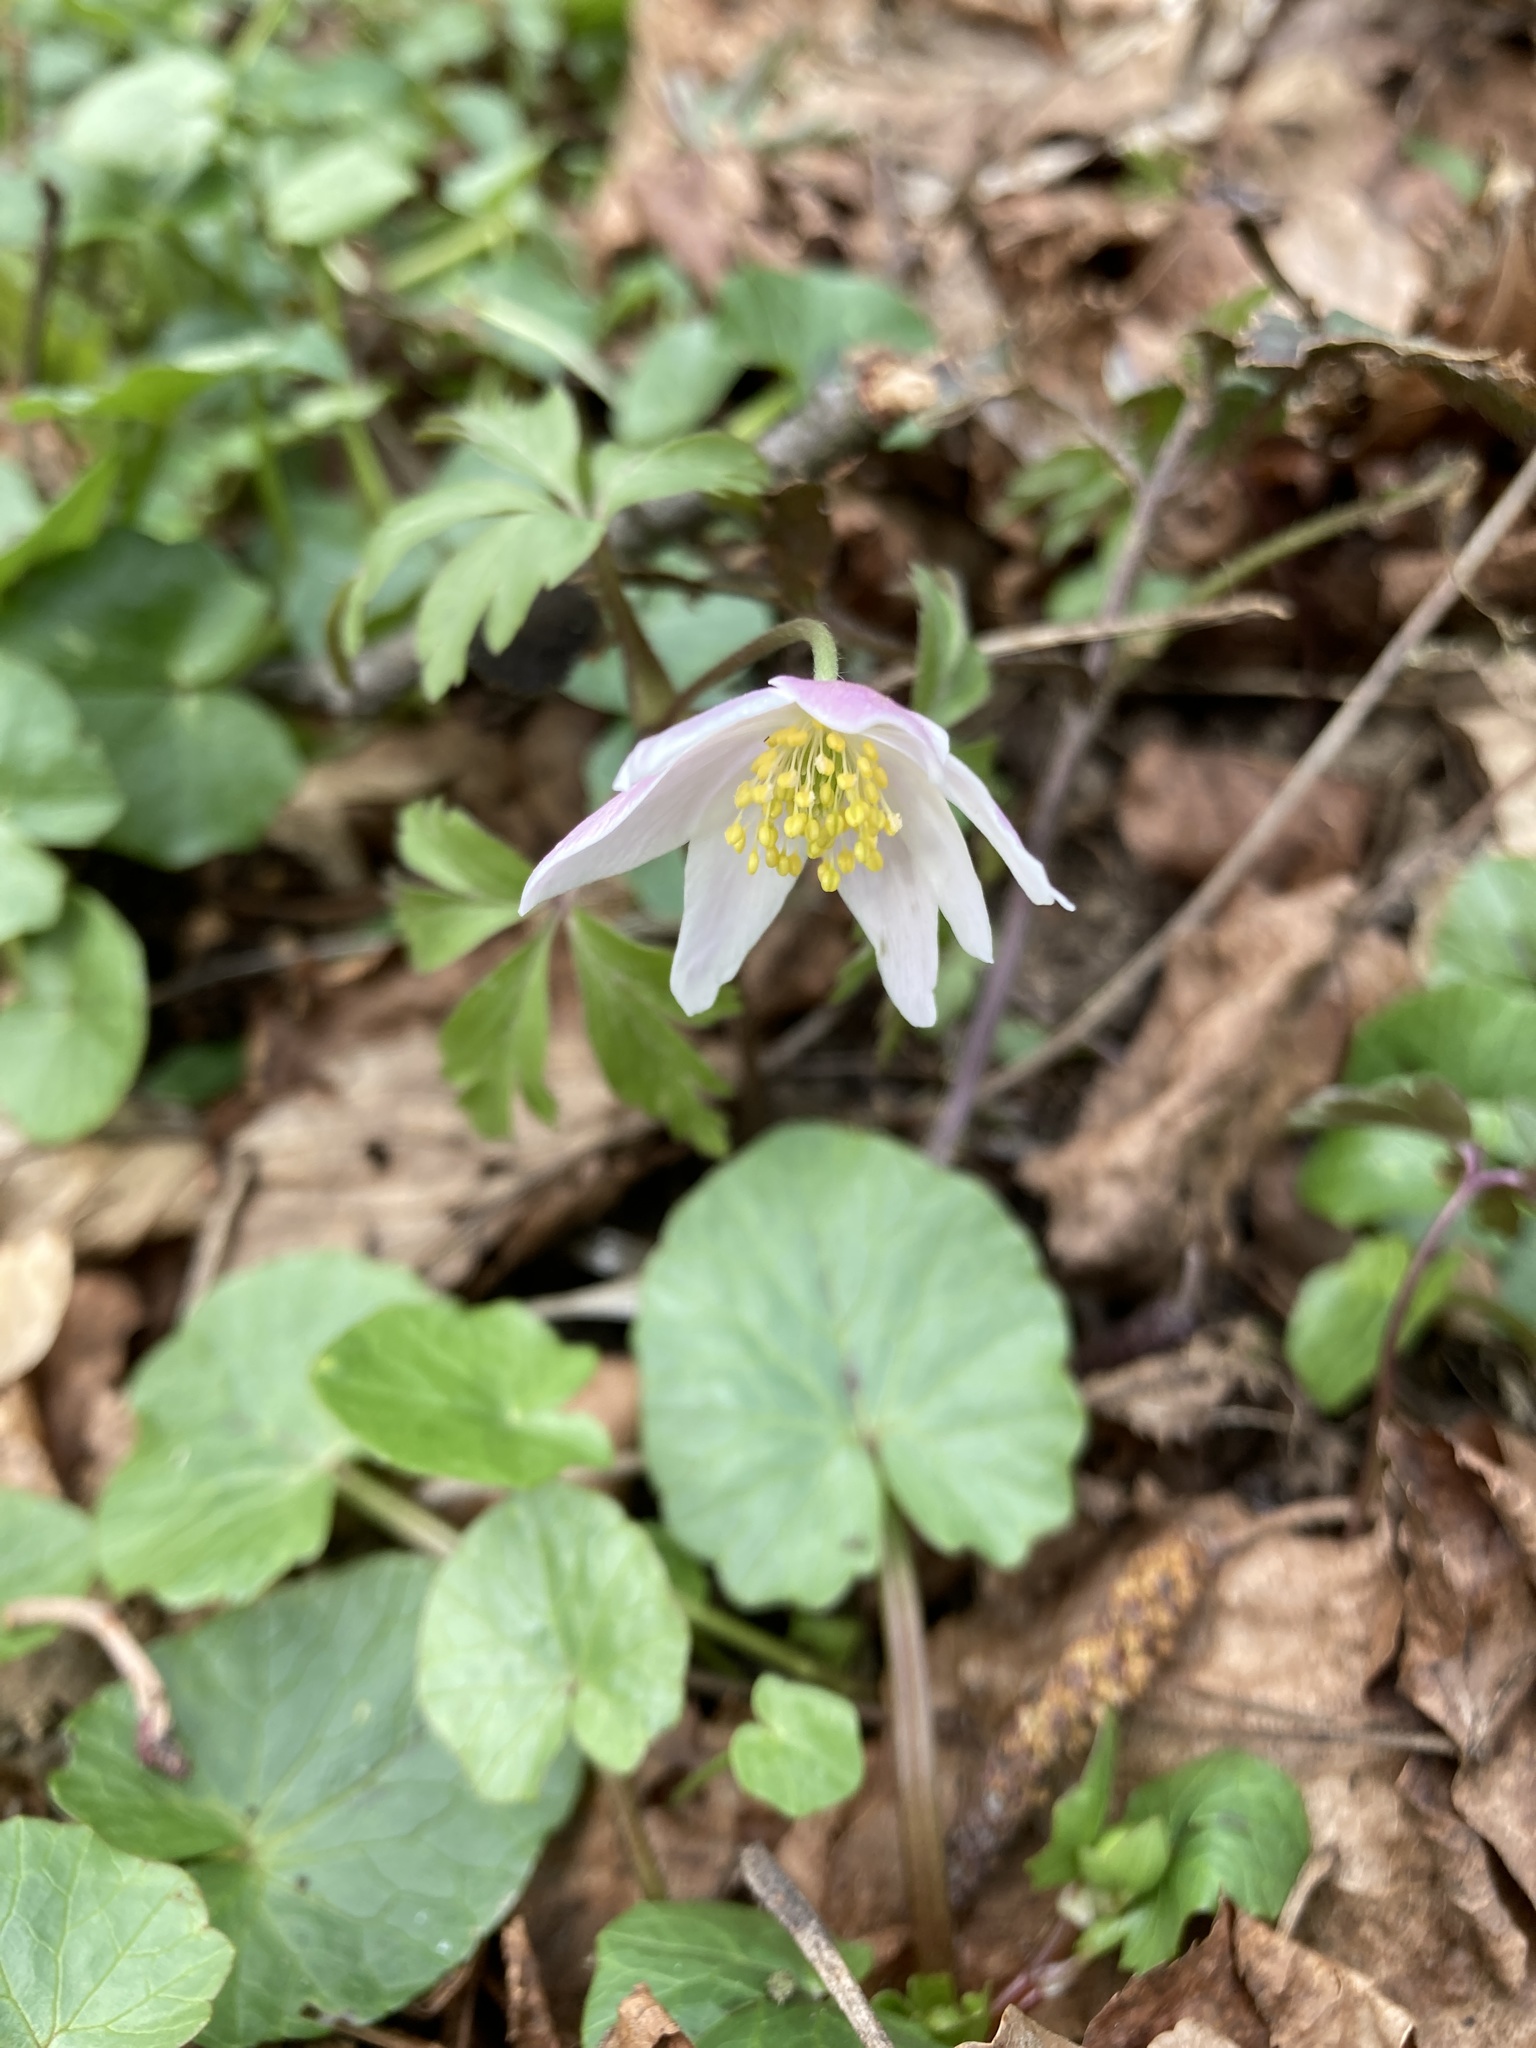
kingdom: Plantae
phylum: Tracheophyta
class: Magnoliopsida
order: Ranunculales
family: Ranunculaceae
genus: Anemone
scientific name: Anemone nemorosa
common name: Wood anemone
